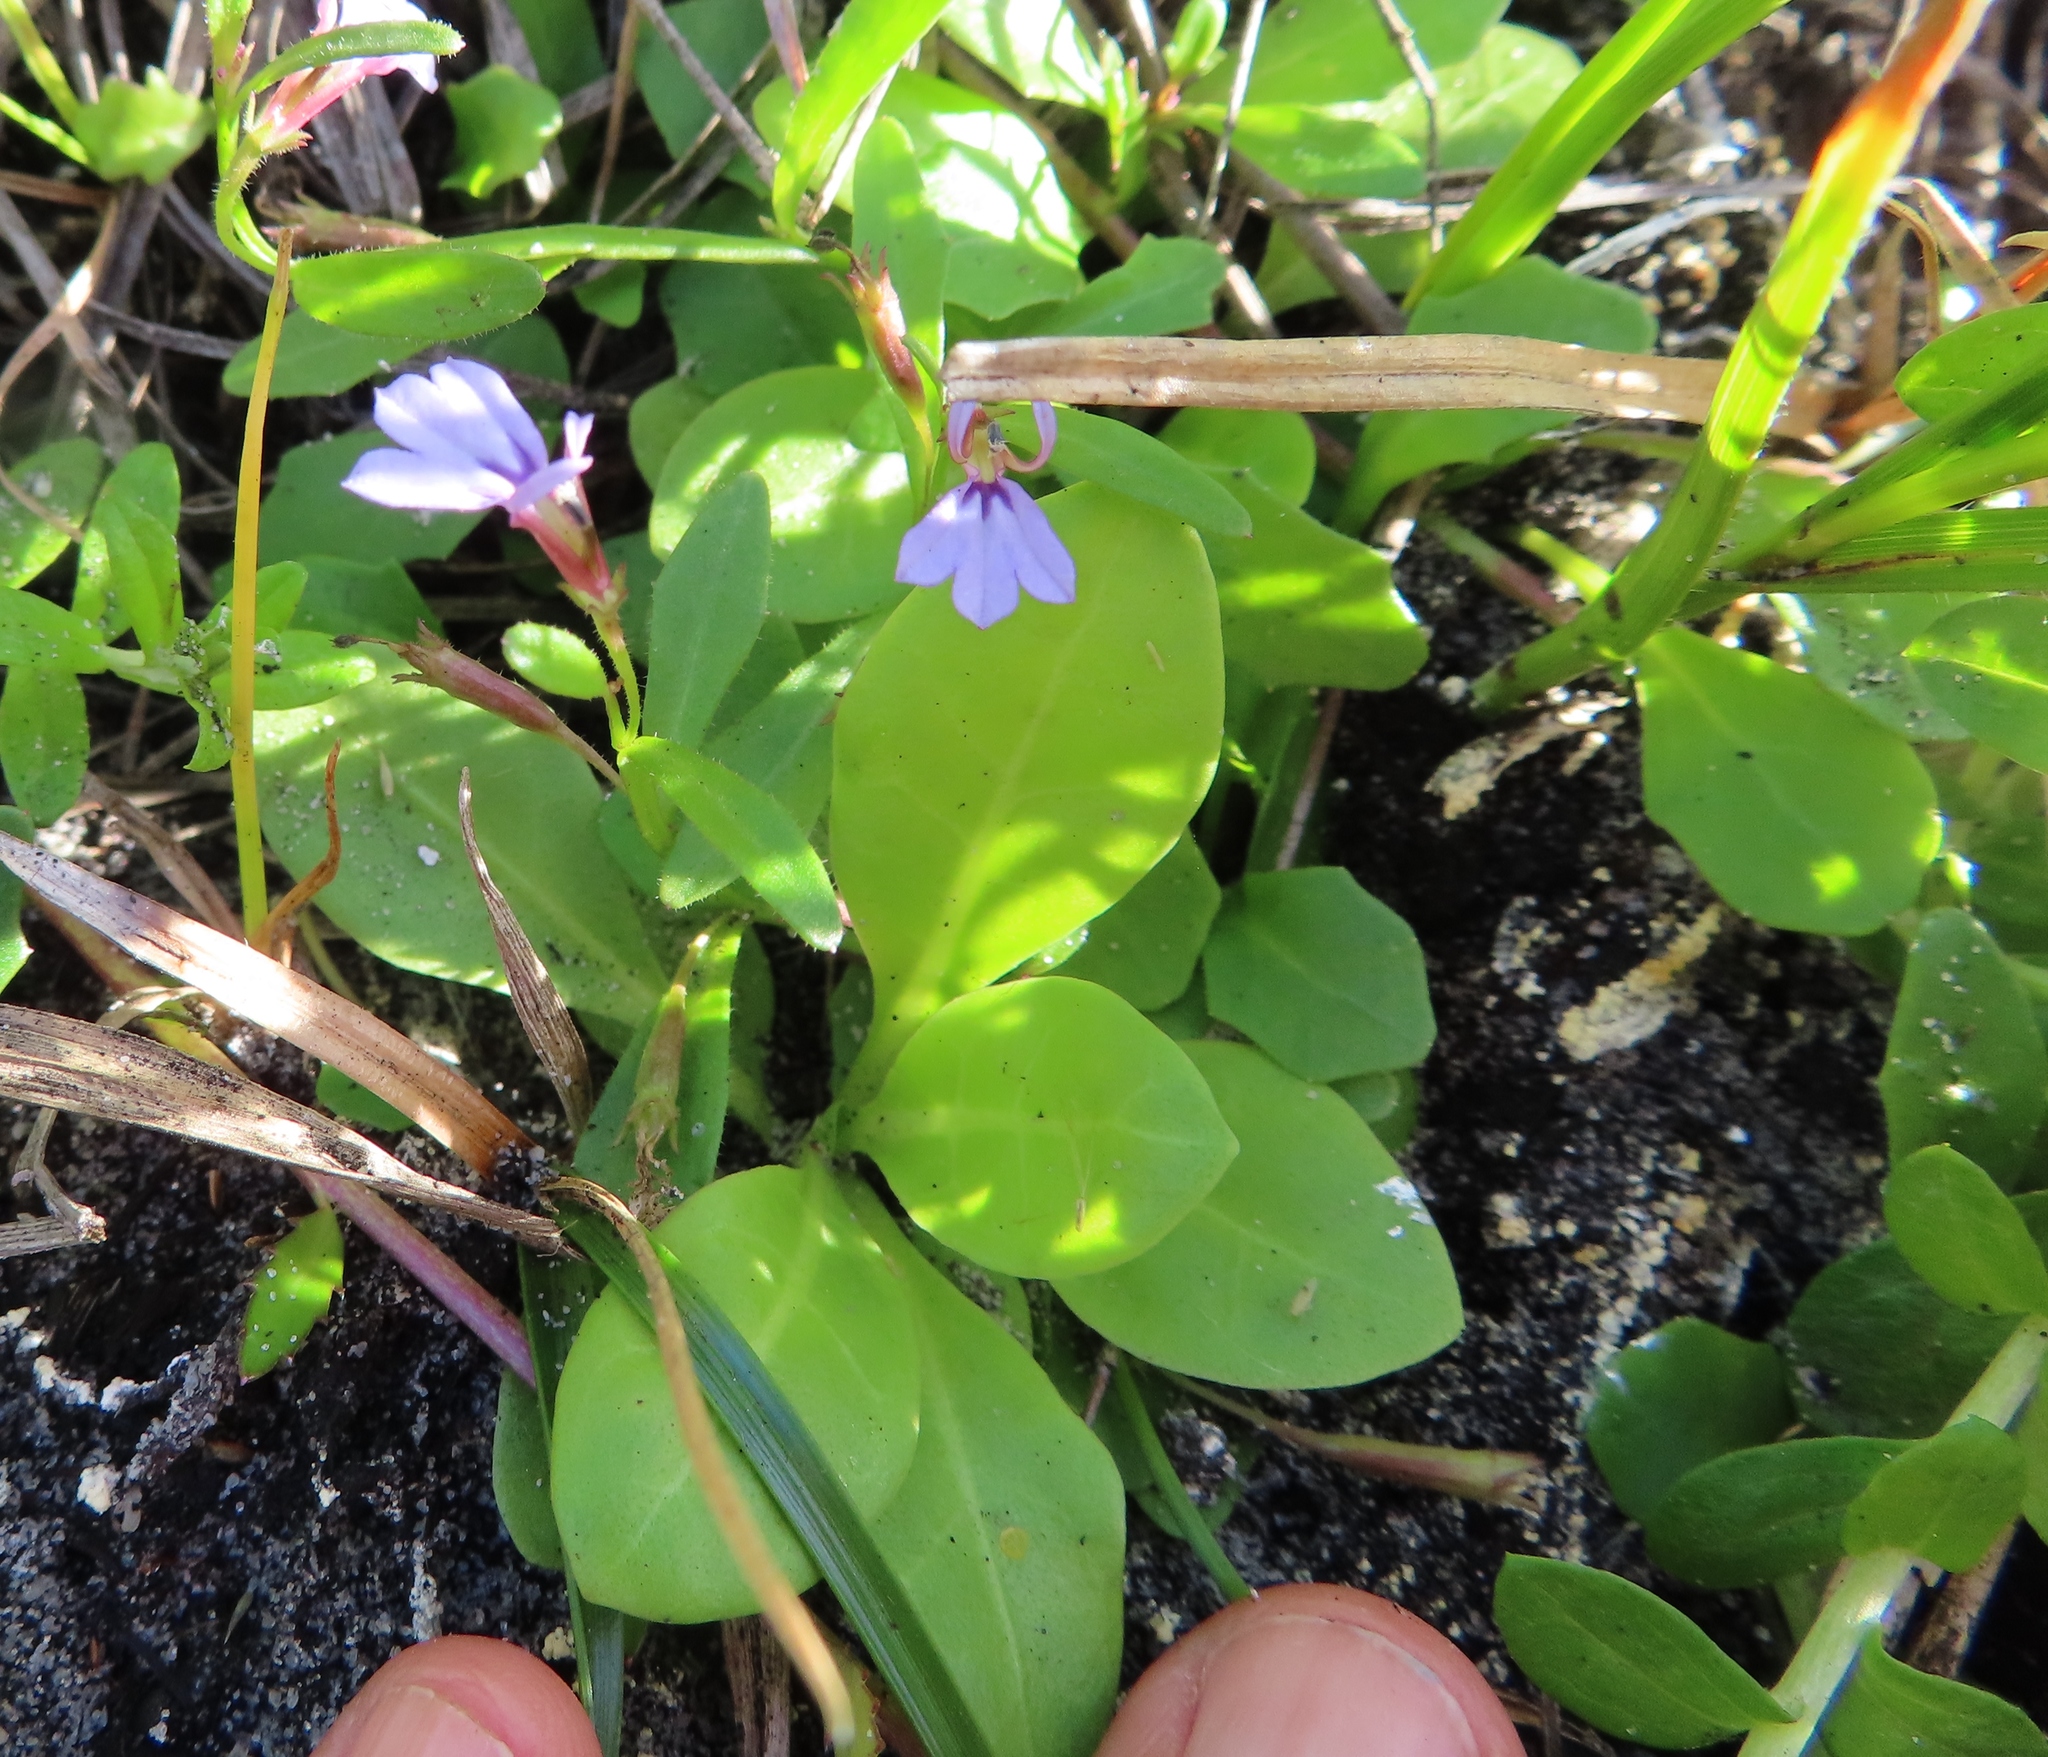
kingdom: Plantae
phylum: Tracheophyta
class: Magnoliopsida
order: Asterales
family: Campanulaceae
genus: Lobelia
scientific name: Lobelia anceps
